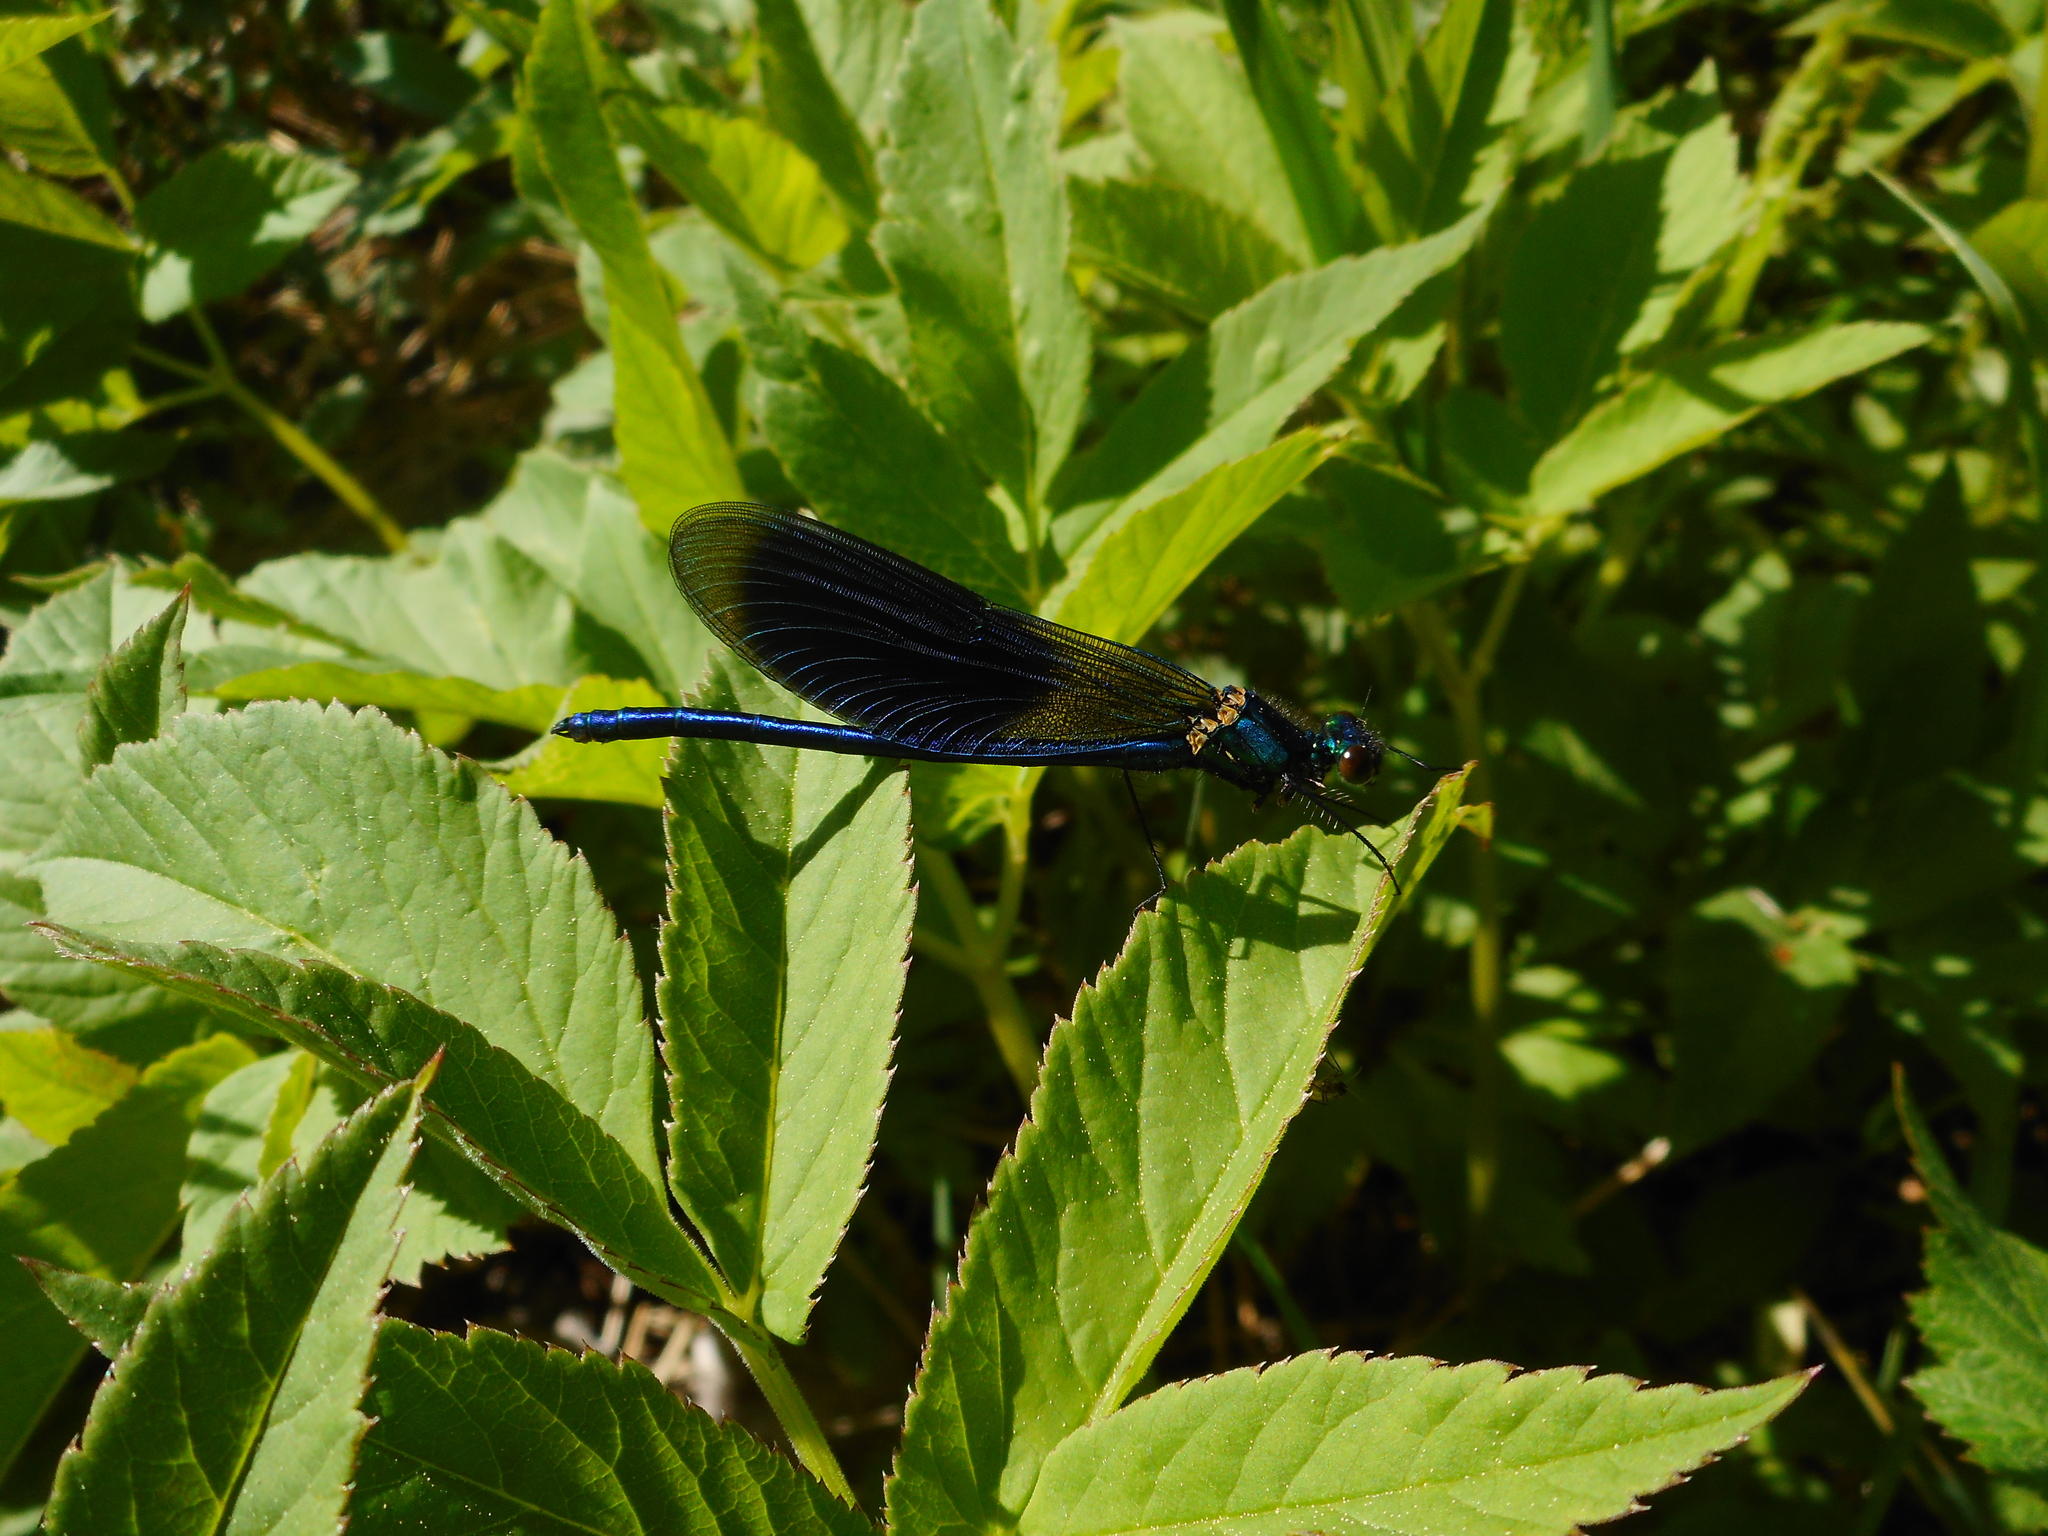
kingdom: Animalia
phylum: Arthropoda
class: Insecta
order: Odonata
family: Calopterygidae
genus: Calopteryx
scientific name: Calopteryx splendens
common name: Banded demoiselle
